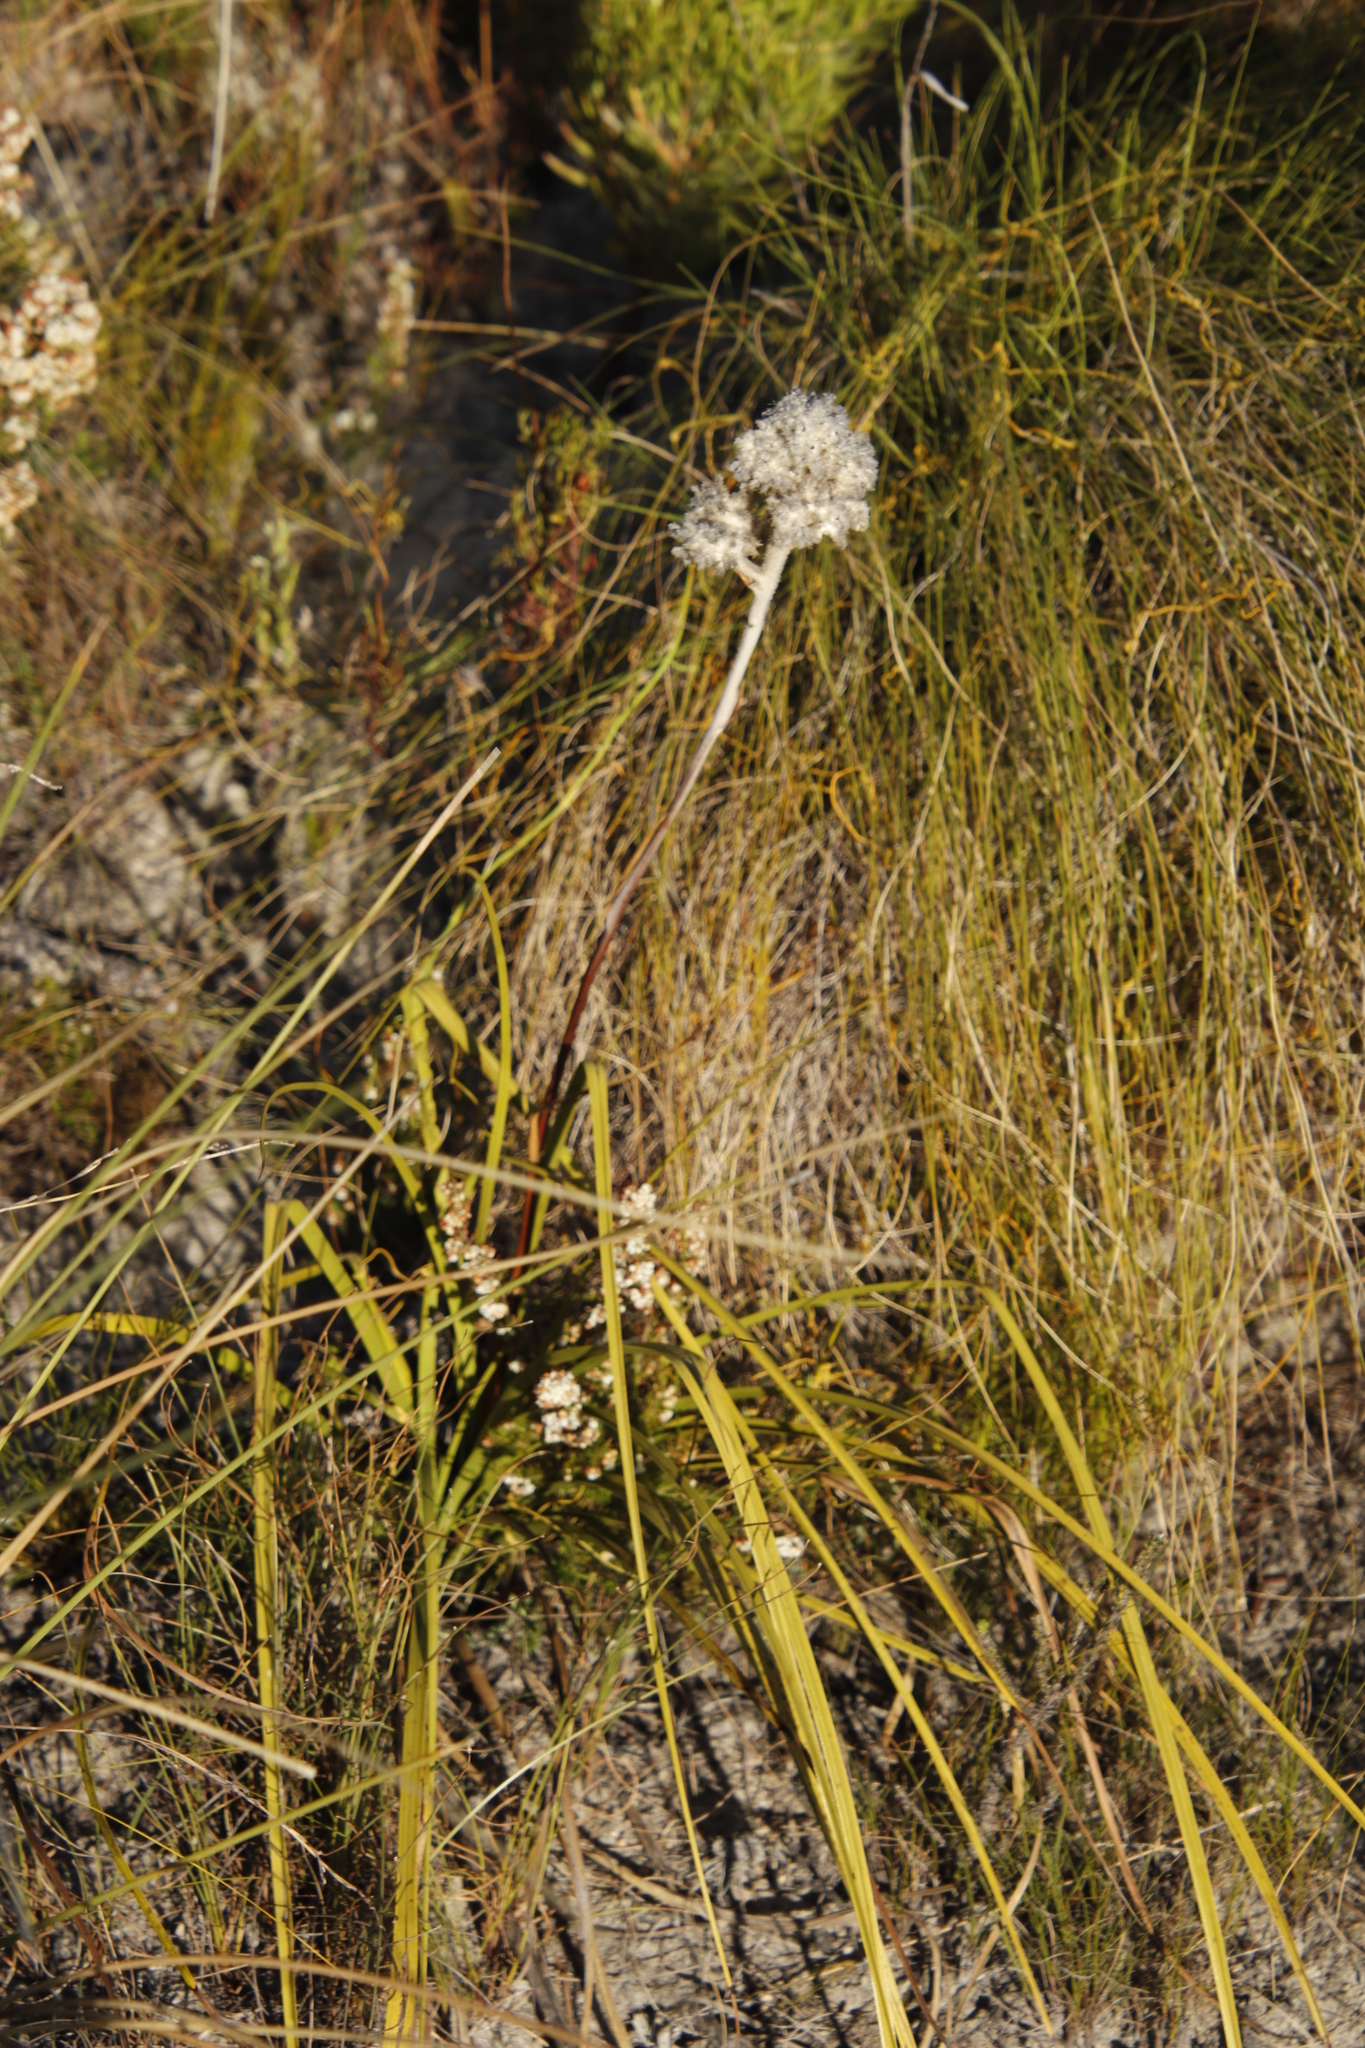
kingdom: Plantae
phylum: Tracheophyta
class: Liliopsida
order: Asparagales
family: Lanariaceae
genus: Lanaria
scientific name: Lanaria lanata
